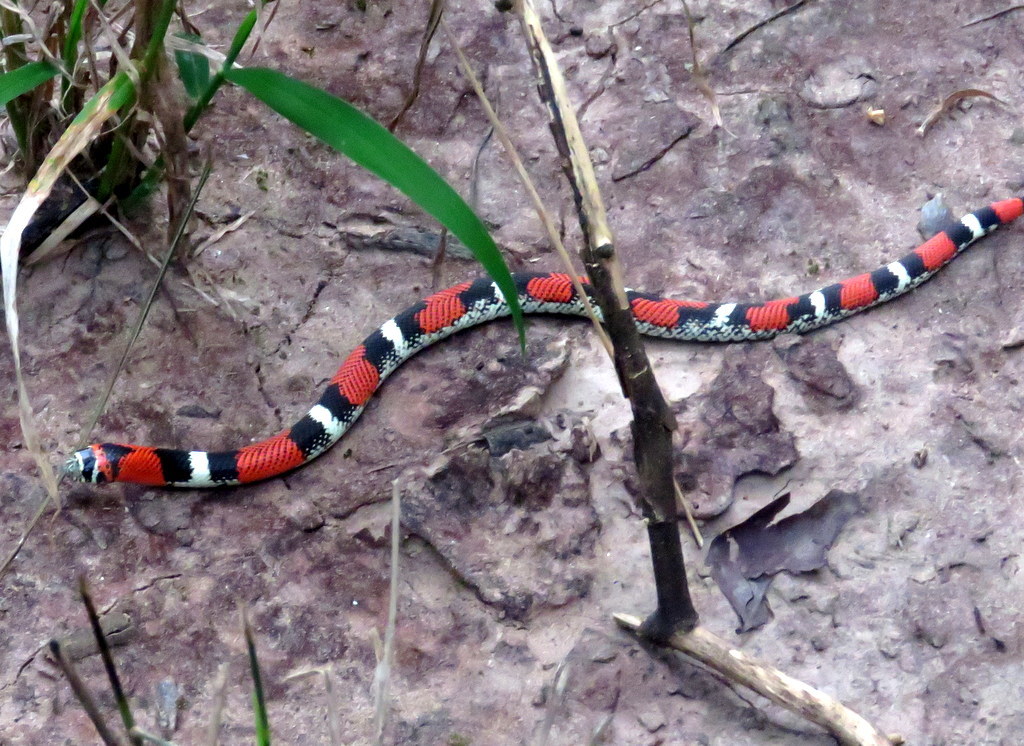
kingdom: Animalia
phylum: Chordata
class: Squamata
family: Colubridae
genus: Xenodon
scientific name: Xenodon pulcher
